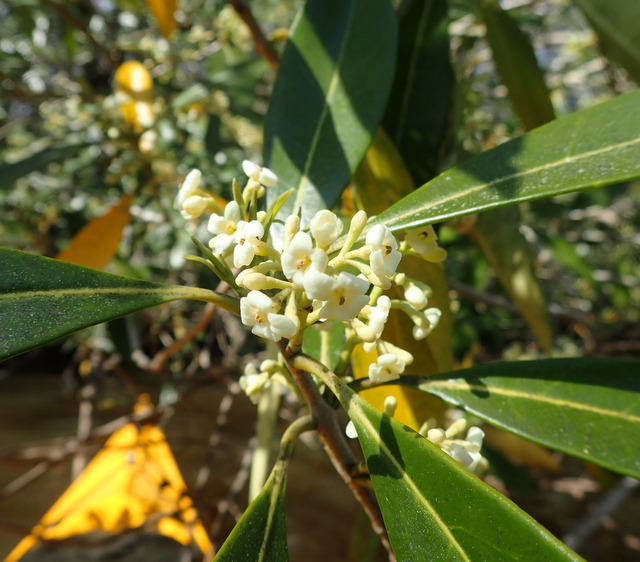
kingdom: Plantae
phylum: Tracheophyta
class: Magnoliopsida
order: Lamiales
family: Oleaceae
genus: Cartrema
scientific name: Cartrema americana
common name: Devilwood
